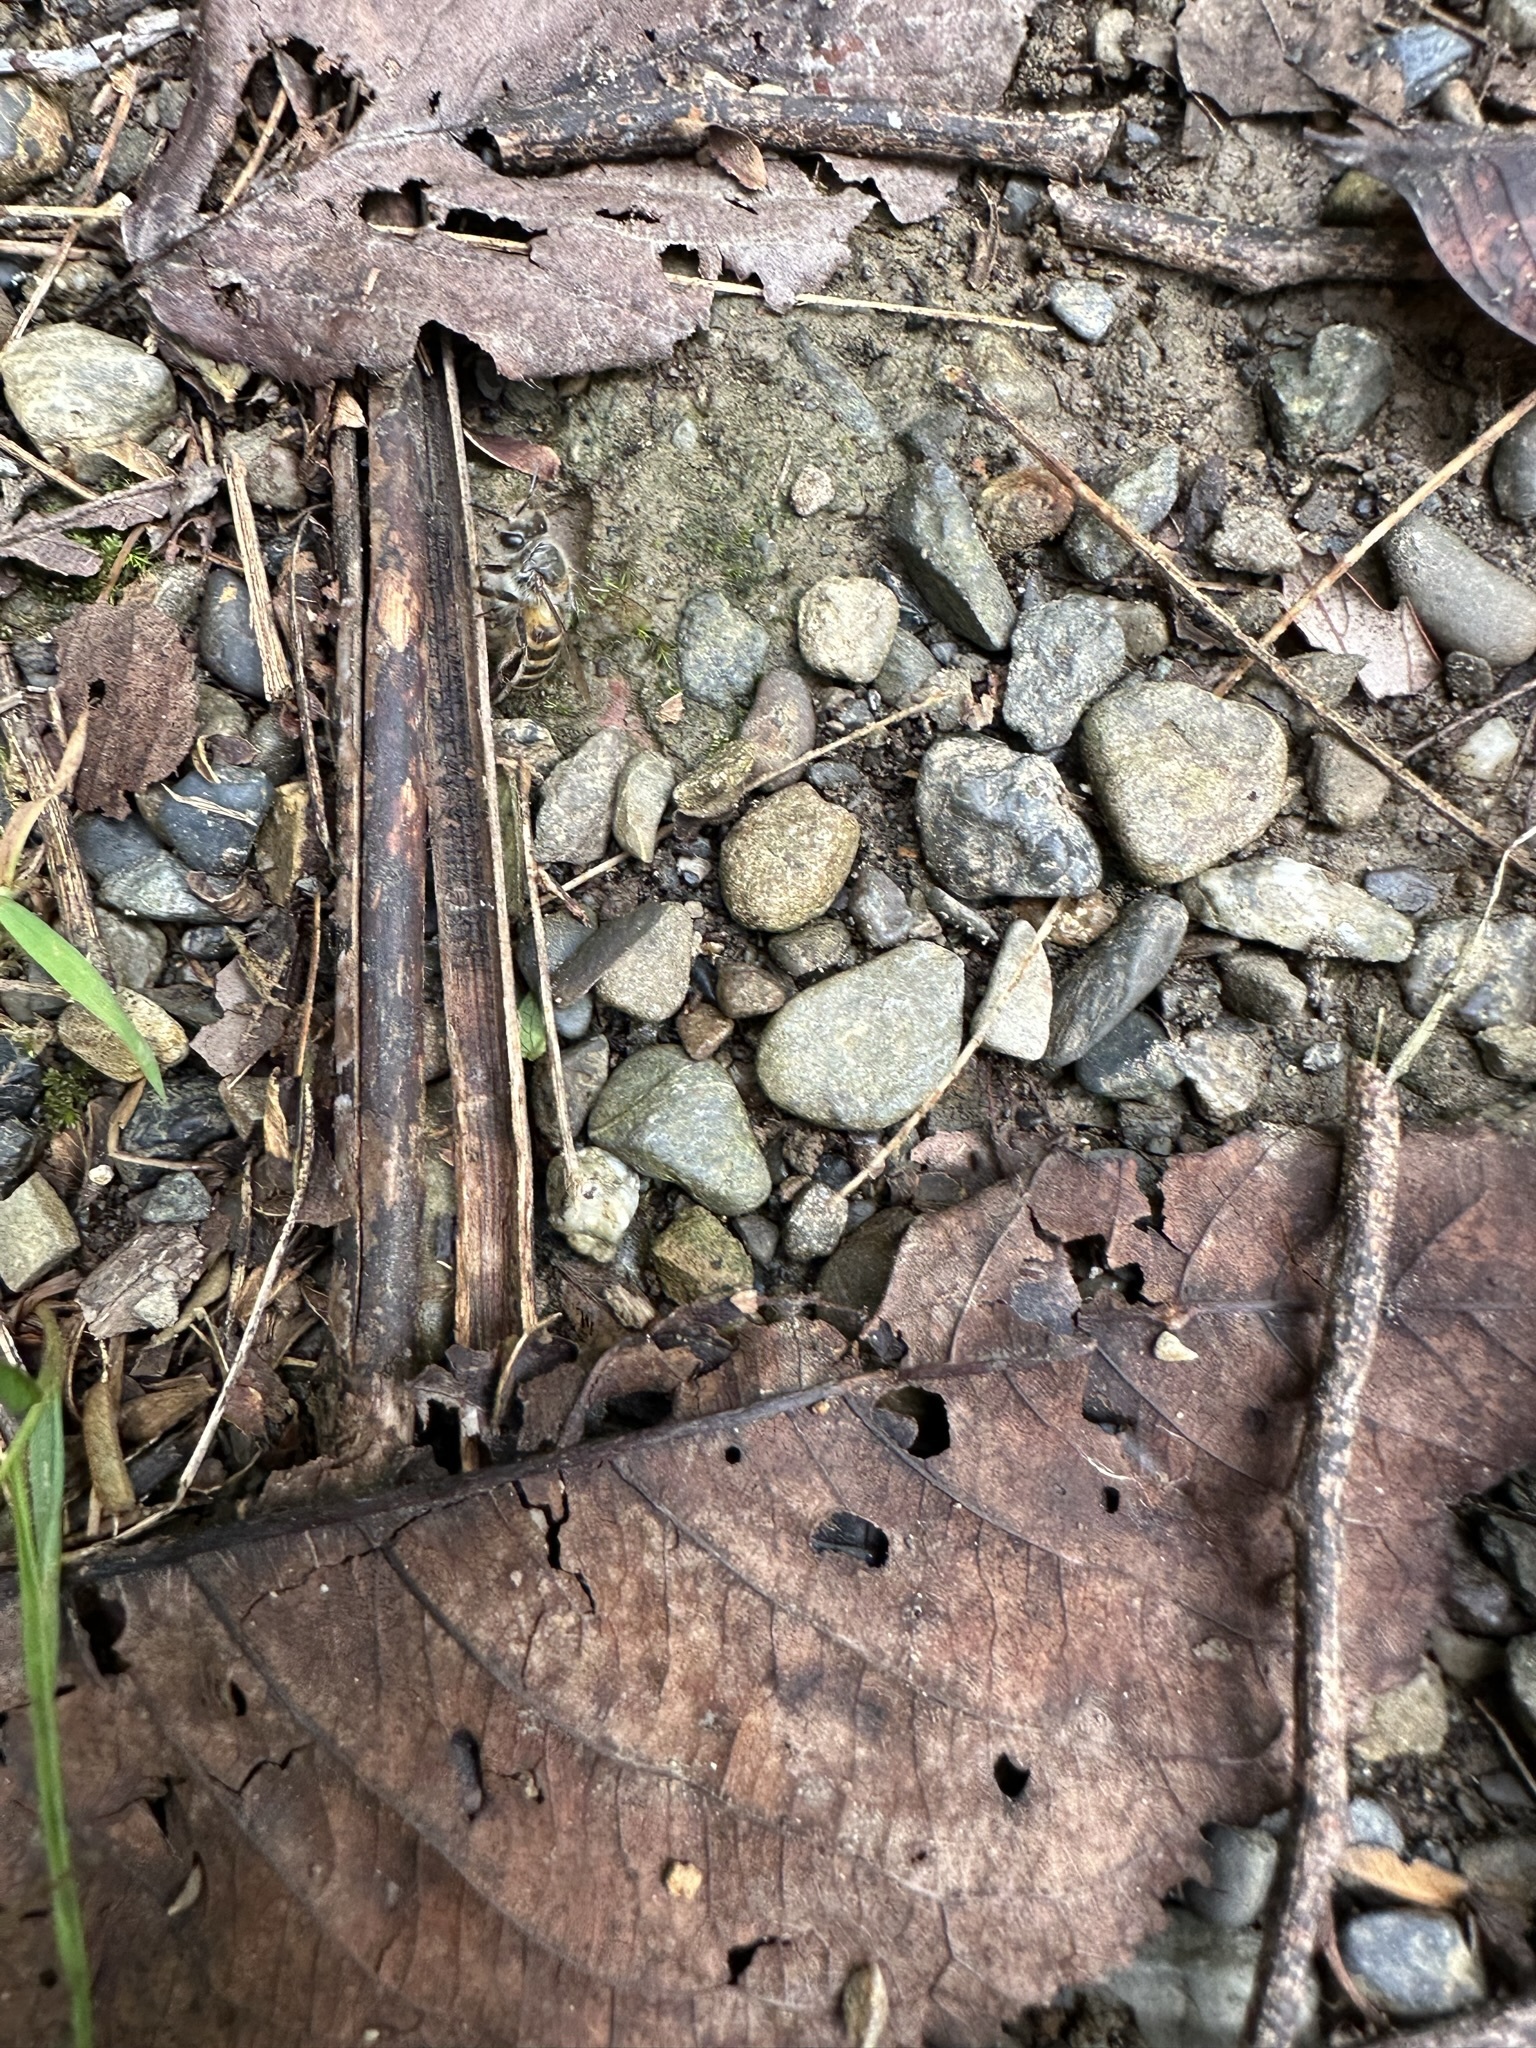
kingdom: Animalia
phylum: Arthropoda
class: Insecta
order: Hymenoptera
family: Apidae
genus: Apis
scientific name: Apis cerana
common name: Honey bee
